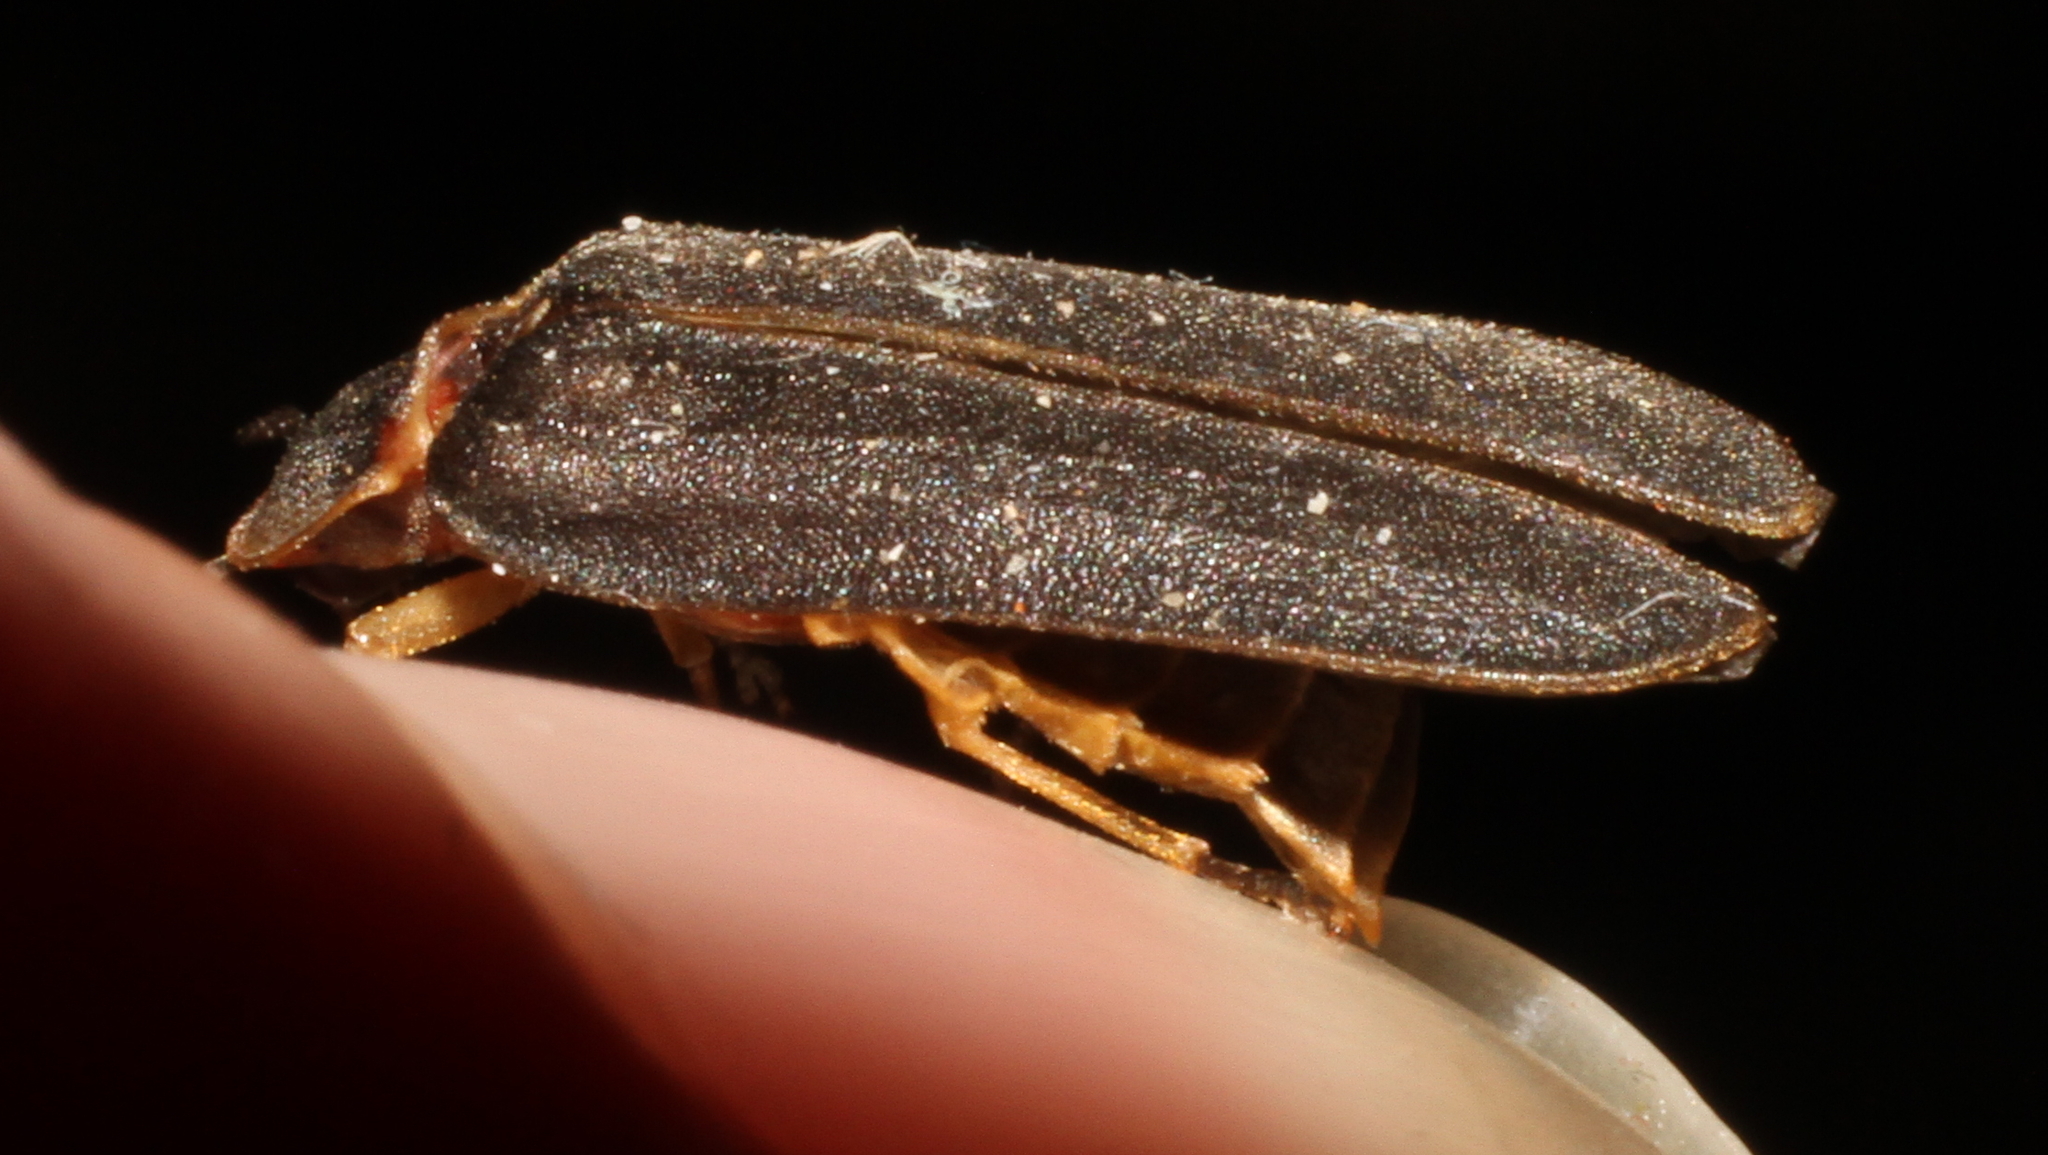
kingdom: Animalia
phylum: Arthropoda
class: Insecta
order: Coleoptera
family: Lampyridae
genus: Lampyris
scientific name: Lampyris noctiluca
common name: Glow-worm
